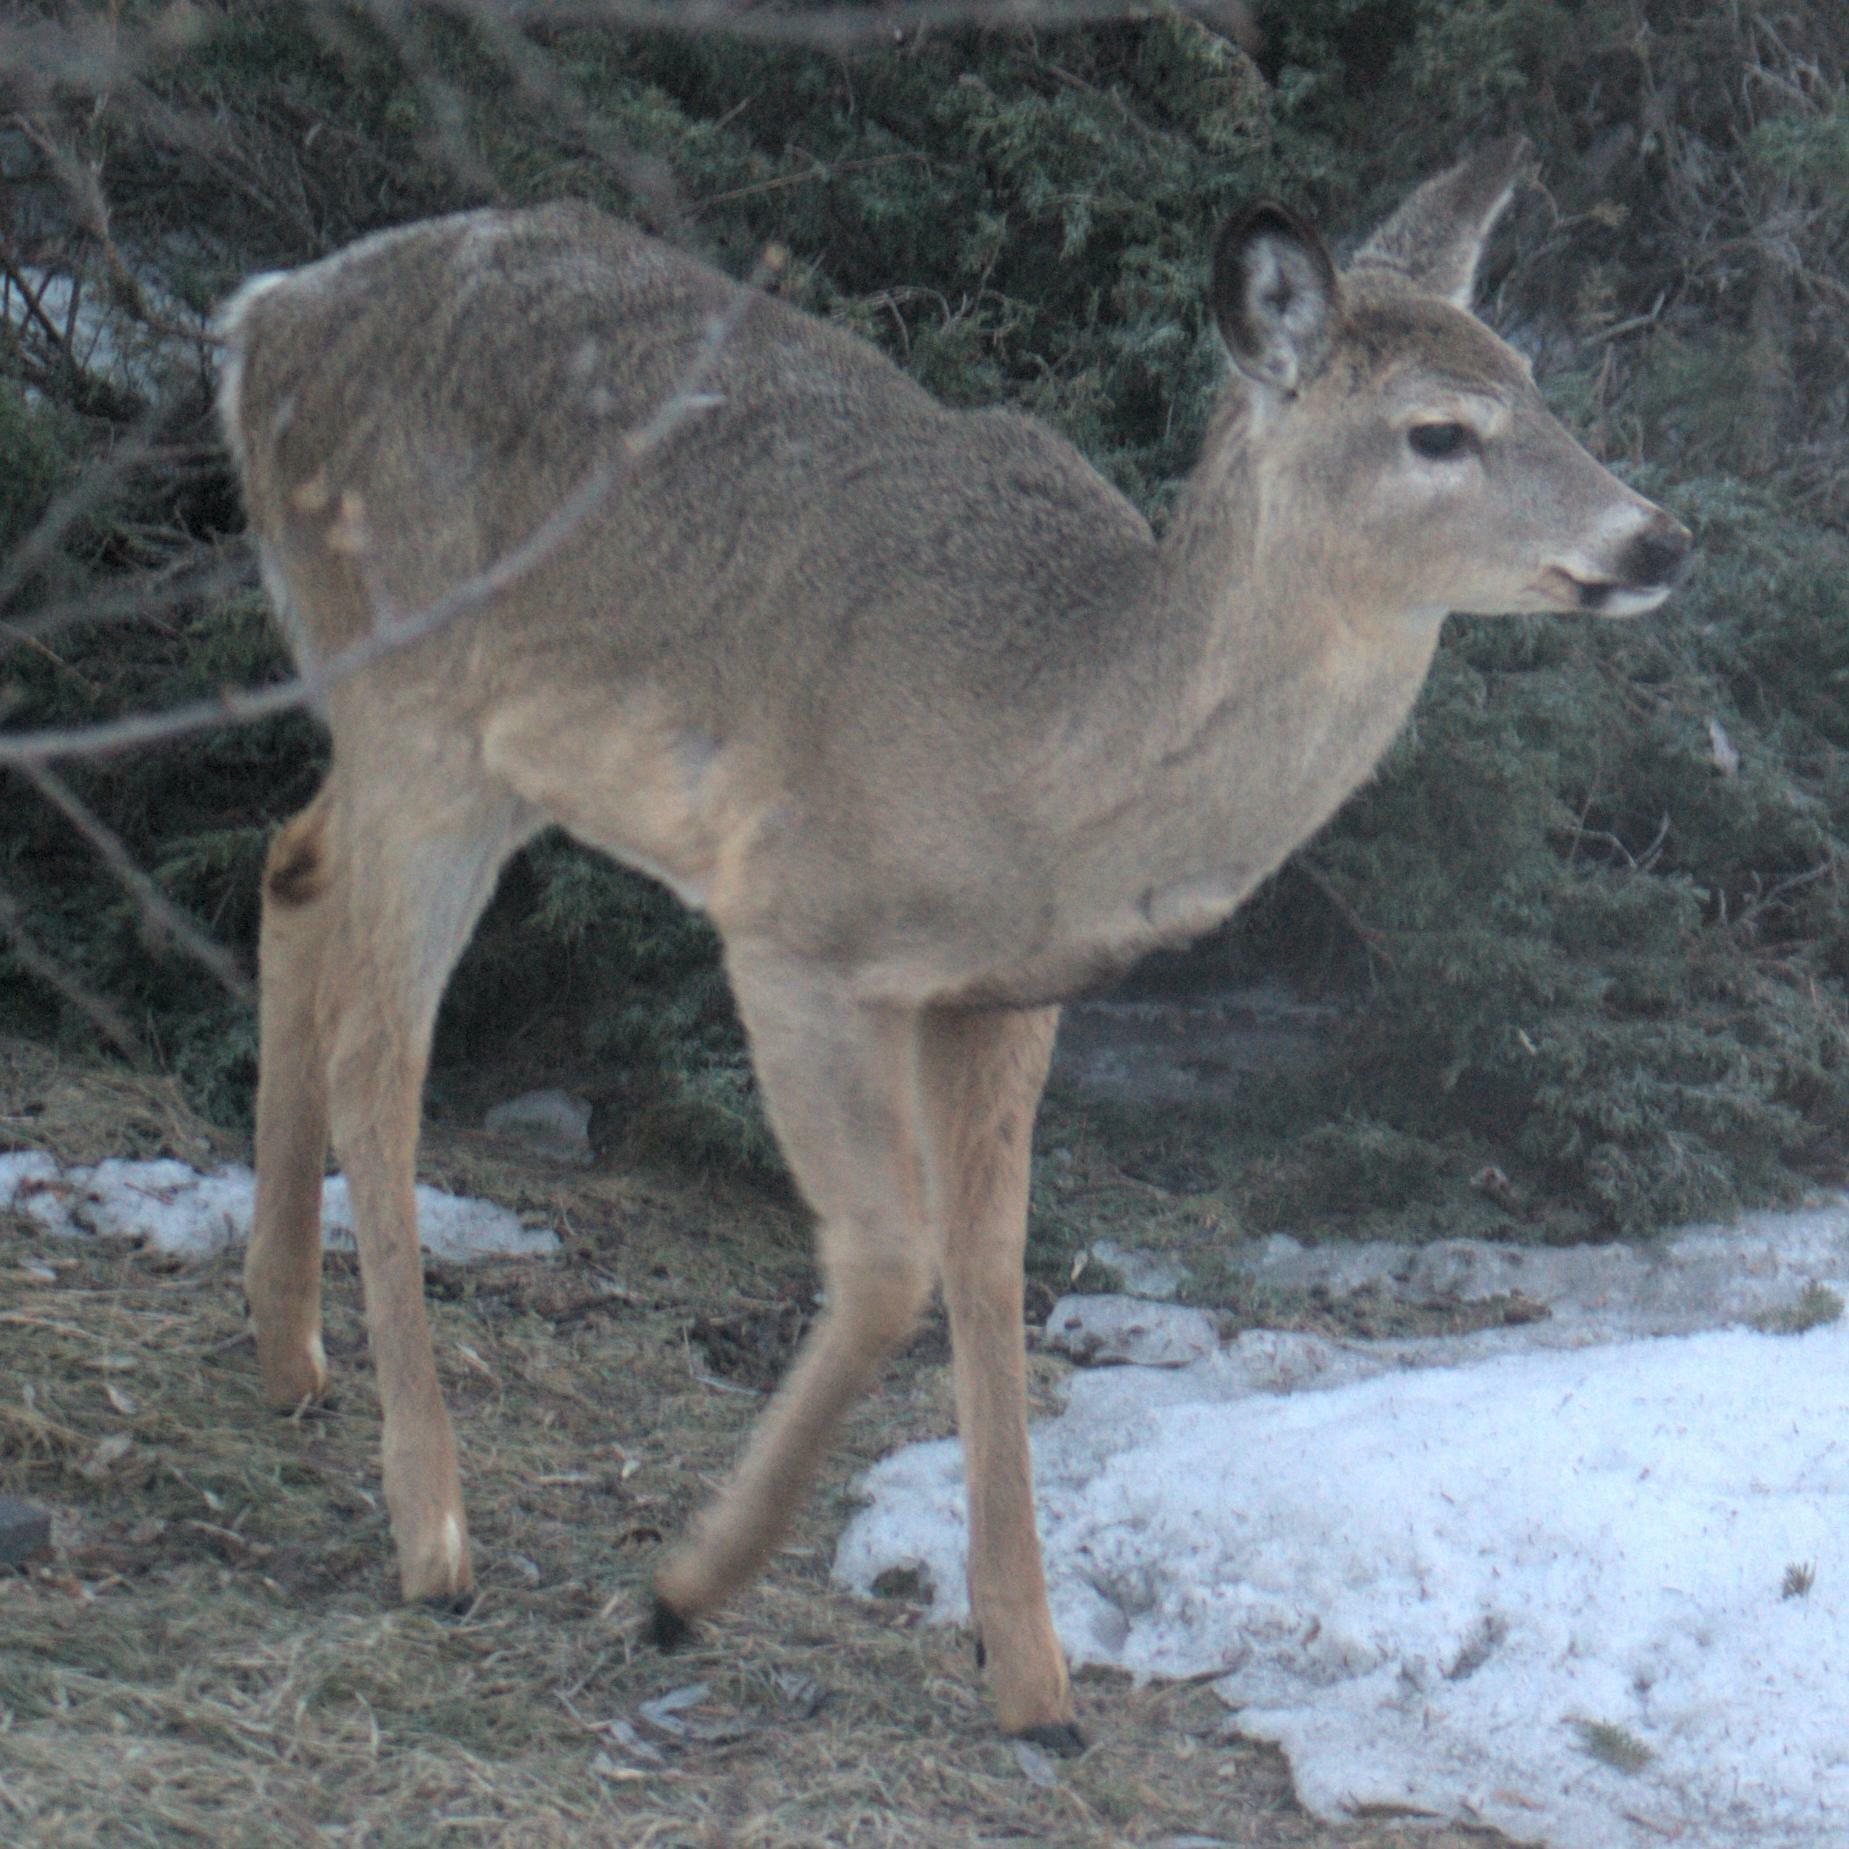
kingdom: Animalia
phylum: Chordata
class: Mammalia
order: Artiodactyla
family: Cervidae
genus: Odocoileus
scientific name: Odocoileus virginianus
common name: White-tailed deer
